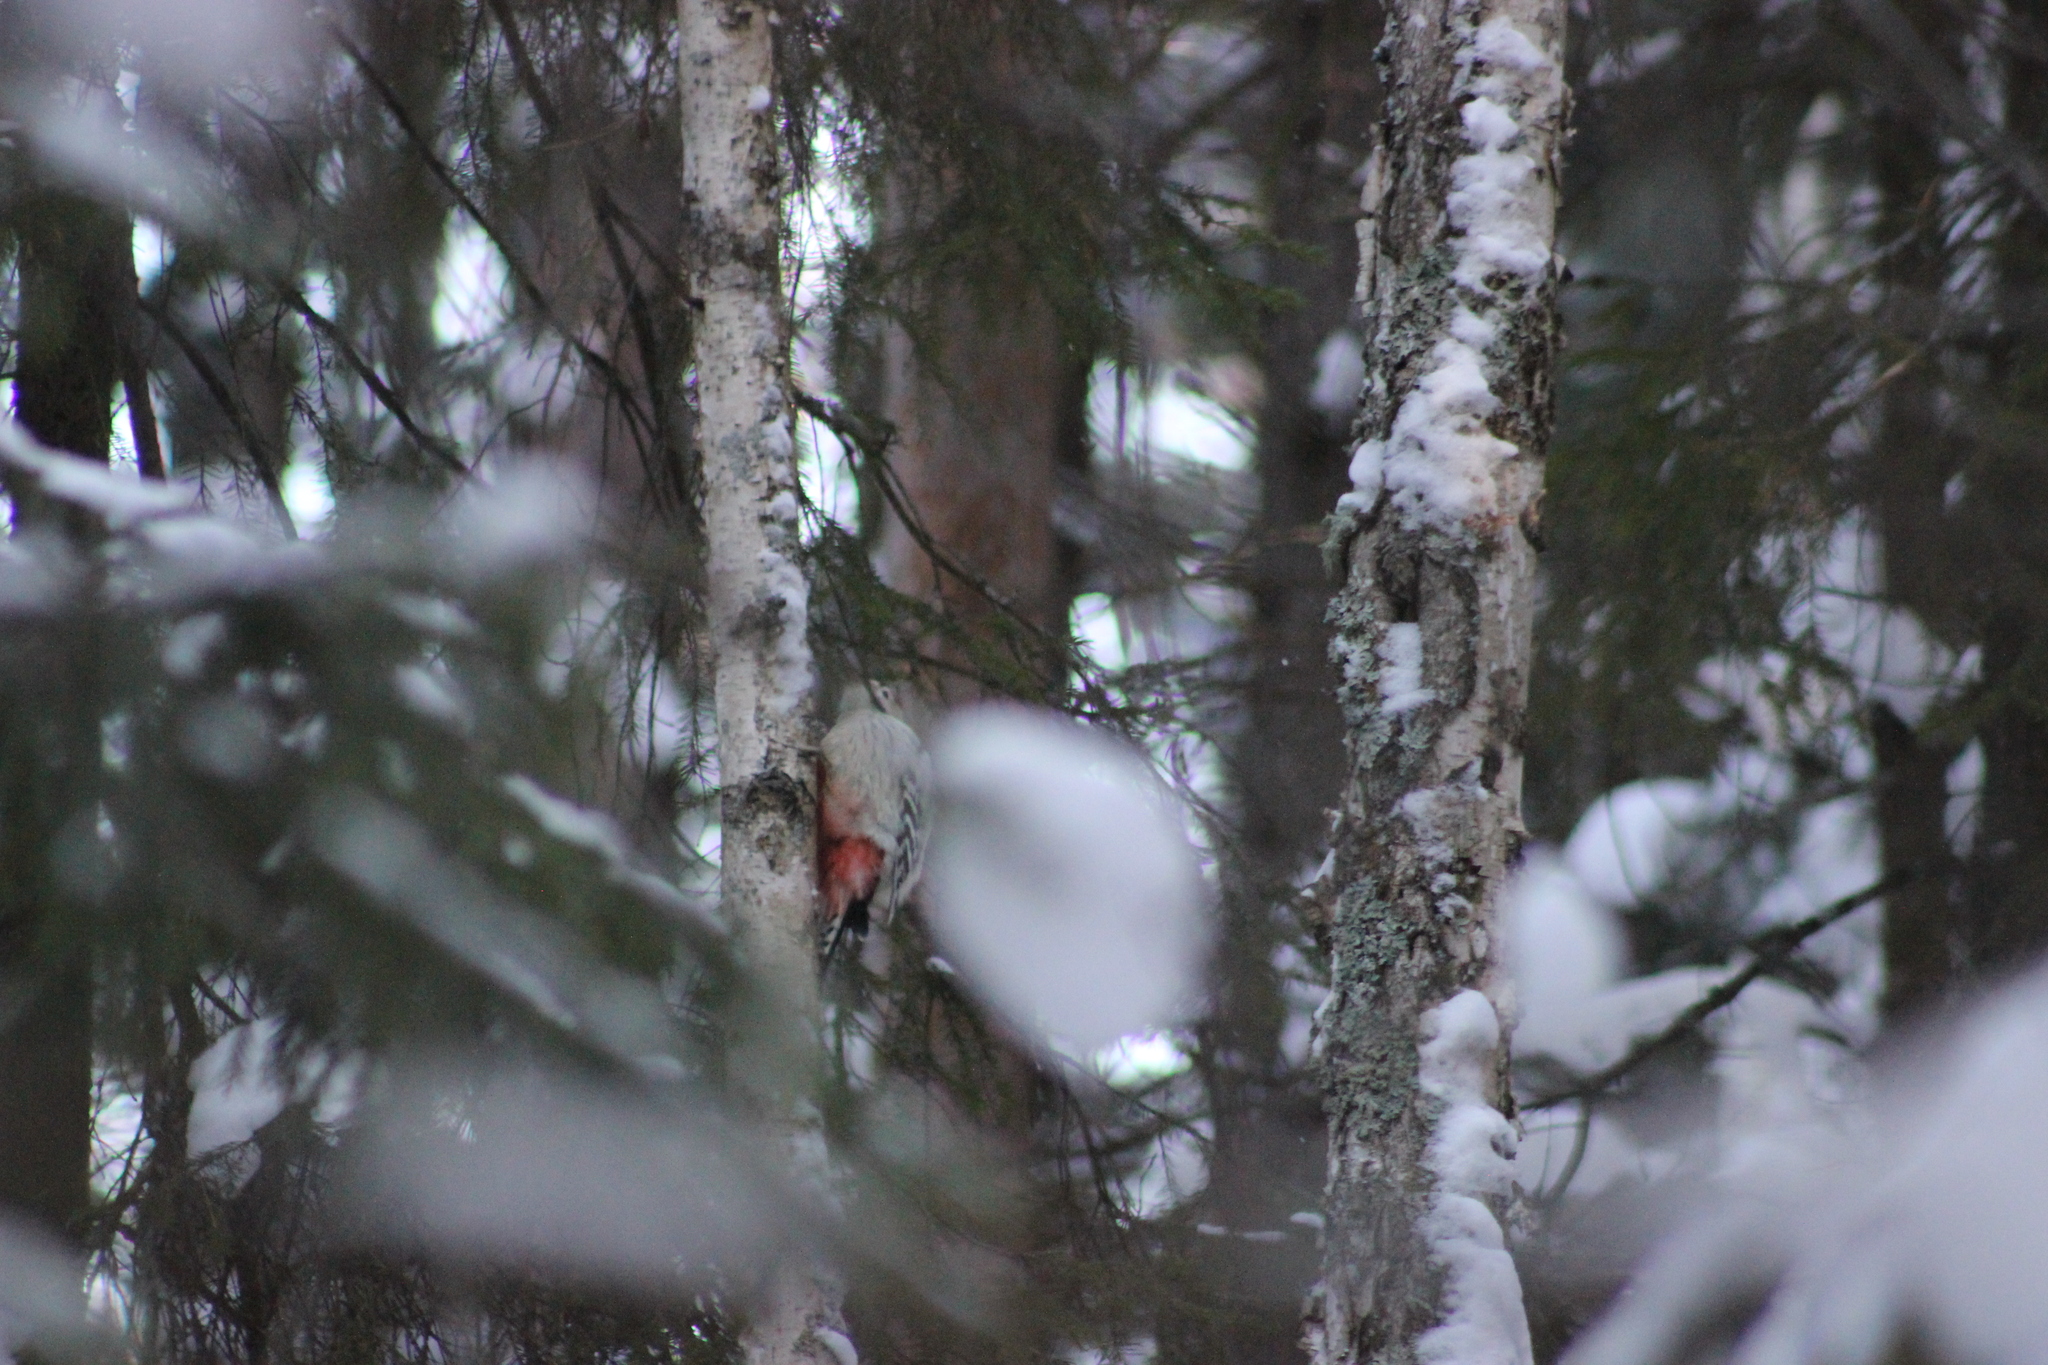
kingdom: Animalia
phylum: Chordata
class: Aves
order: Piciformes
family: Picidae
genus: Dendrocopos
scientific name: Dendrocopos leucotos
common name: White-backed woodpecker
